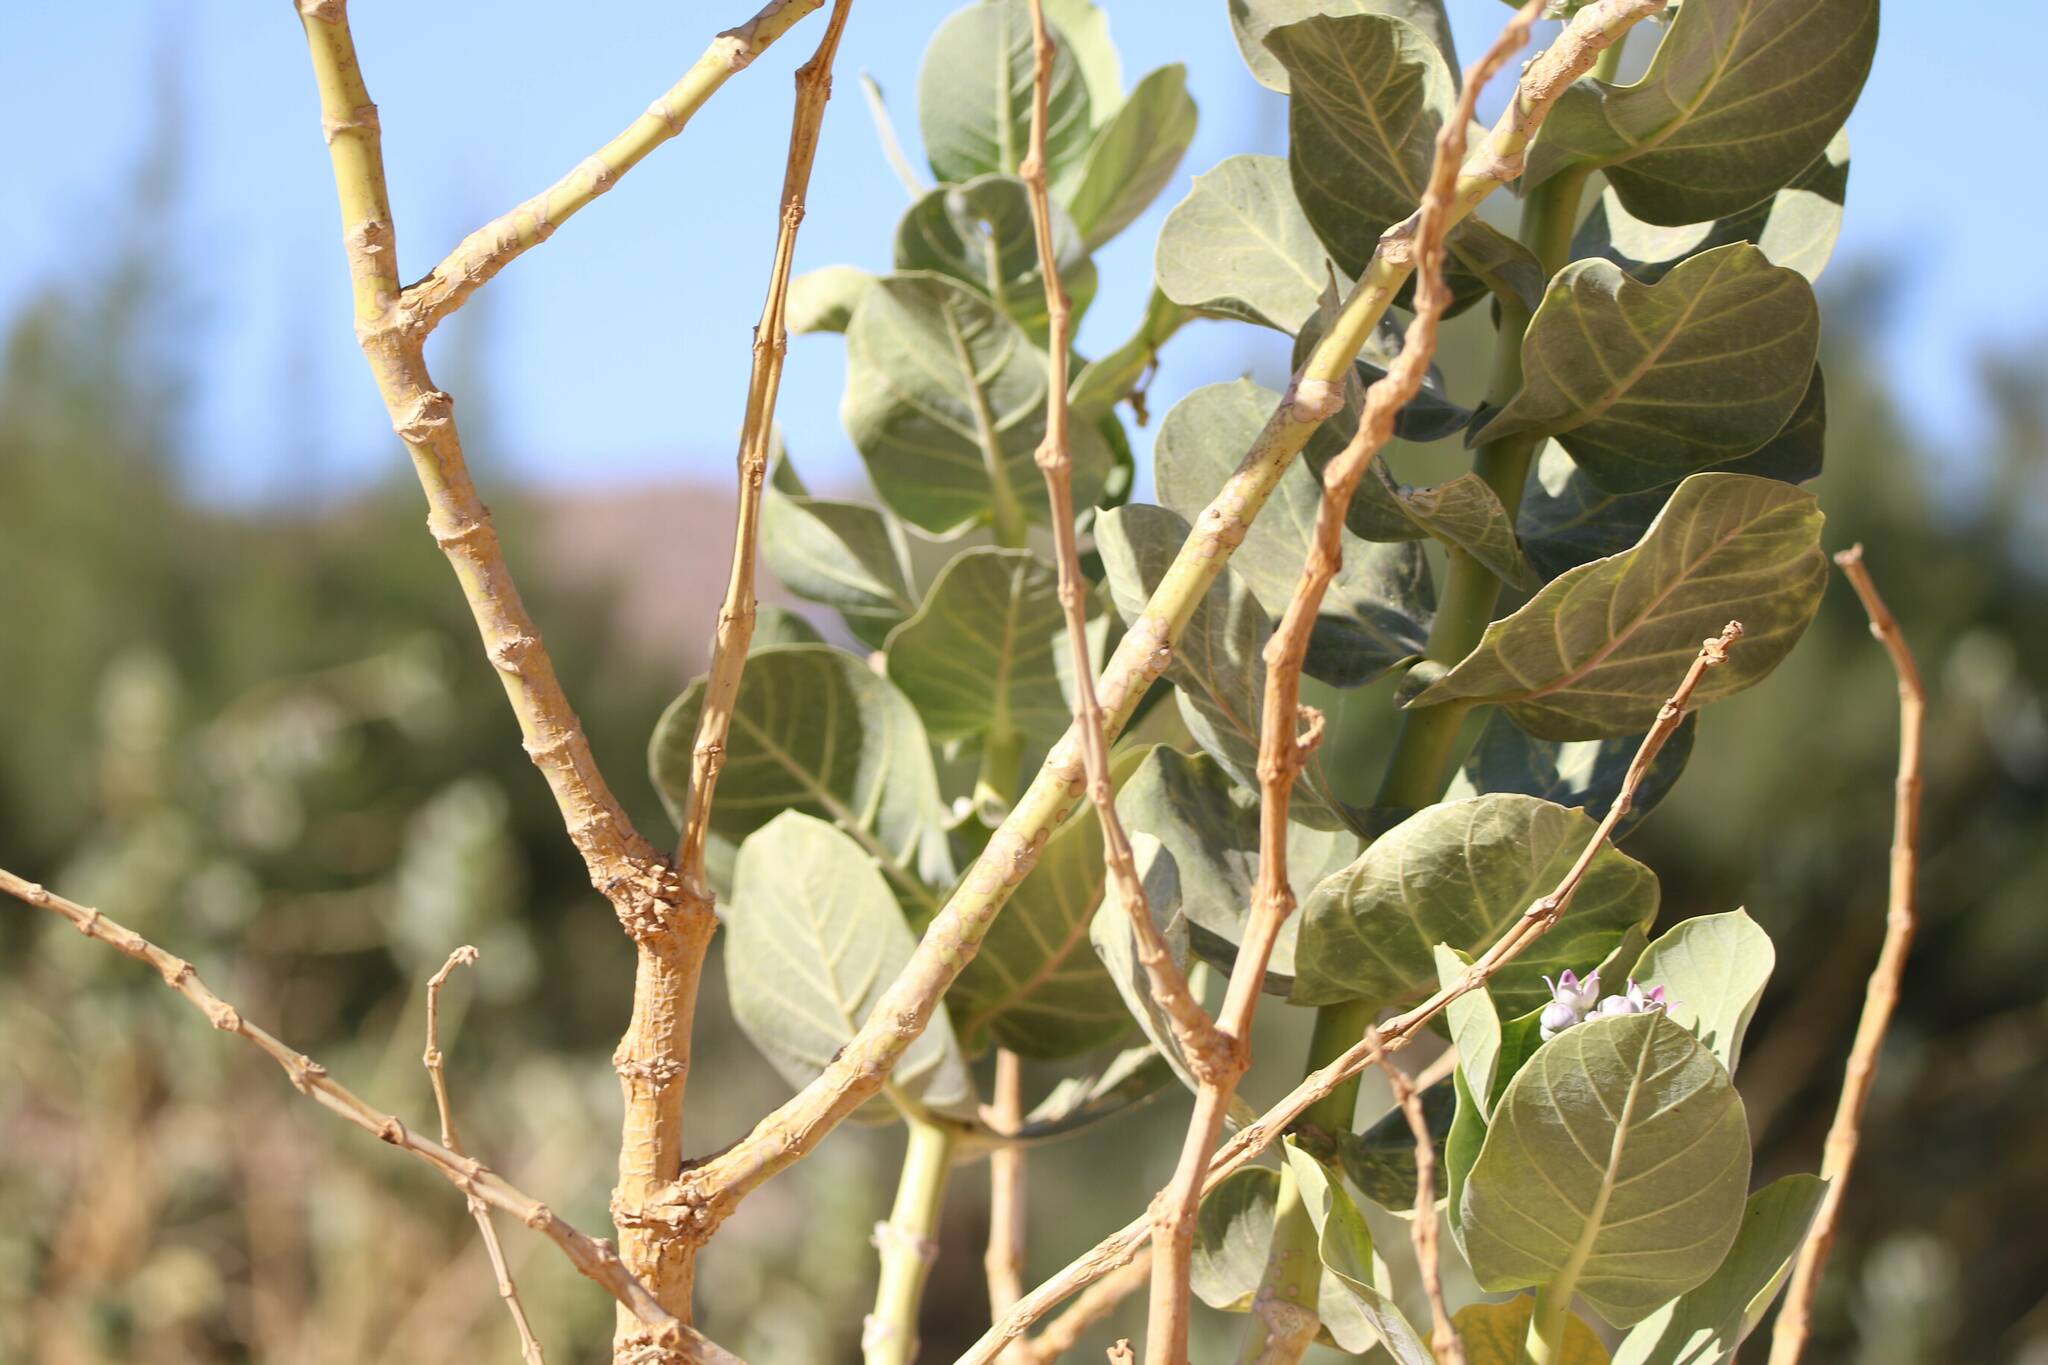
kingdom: Plantae
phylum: Tracheophyta
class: Magnoliopsida
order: Gentianales
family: Apocynaceae
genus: Calotropis
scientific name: Calotropis procera
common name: Roostertree
